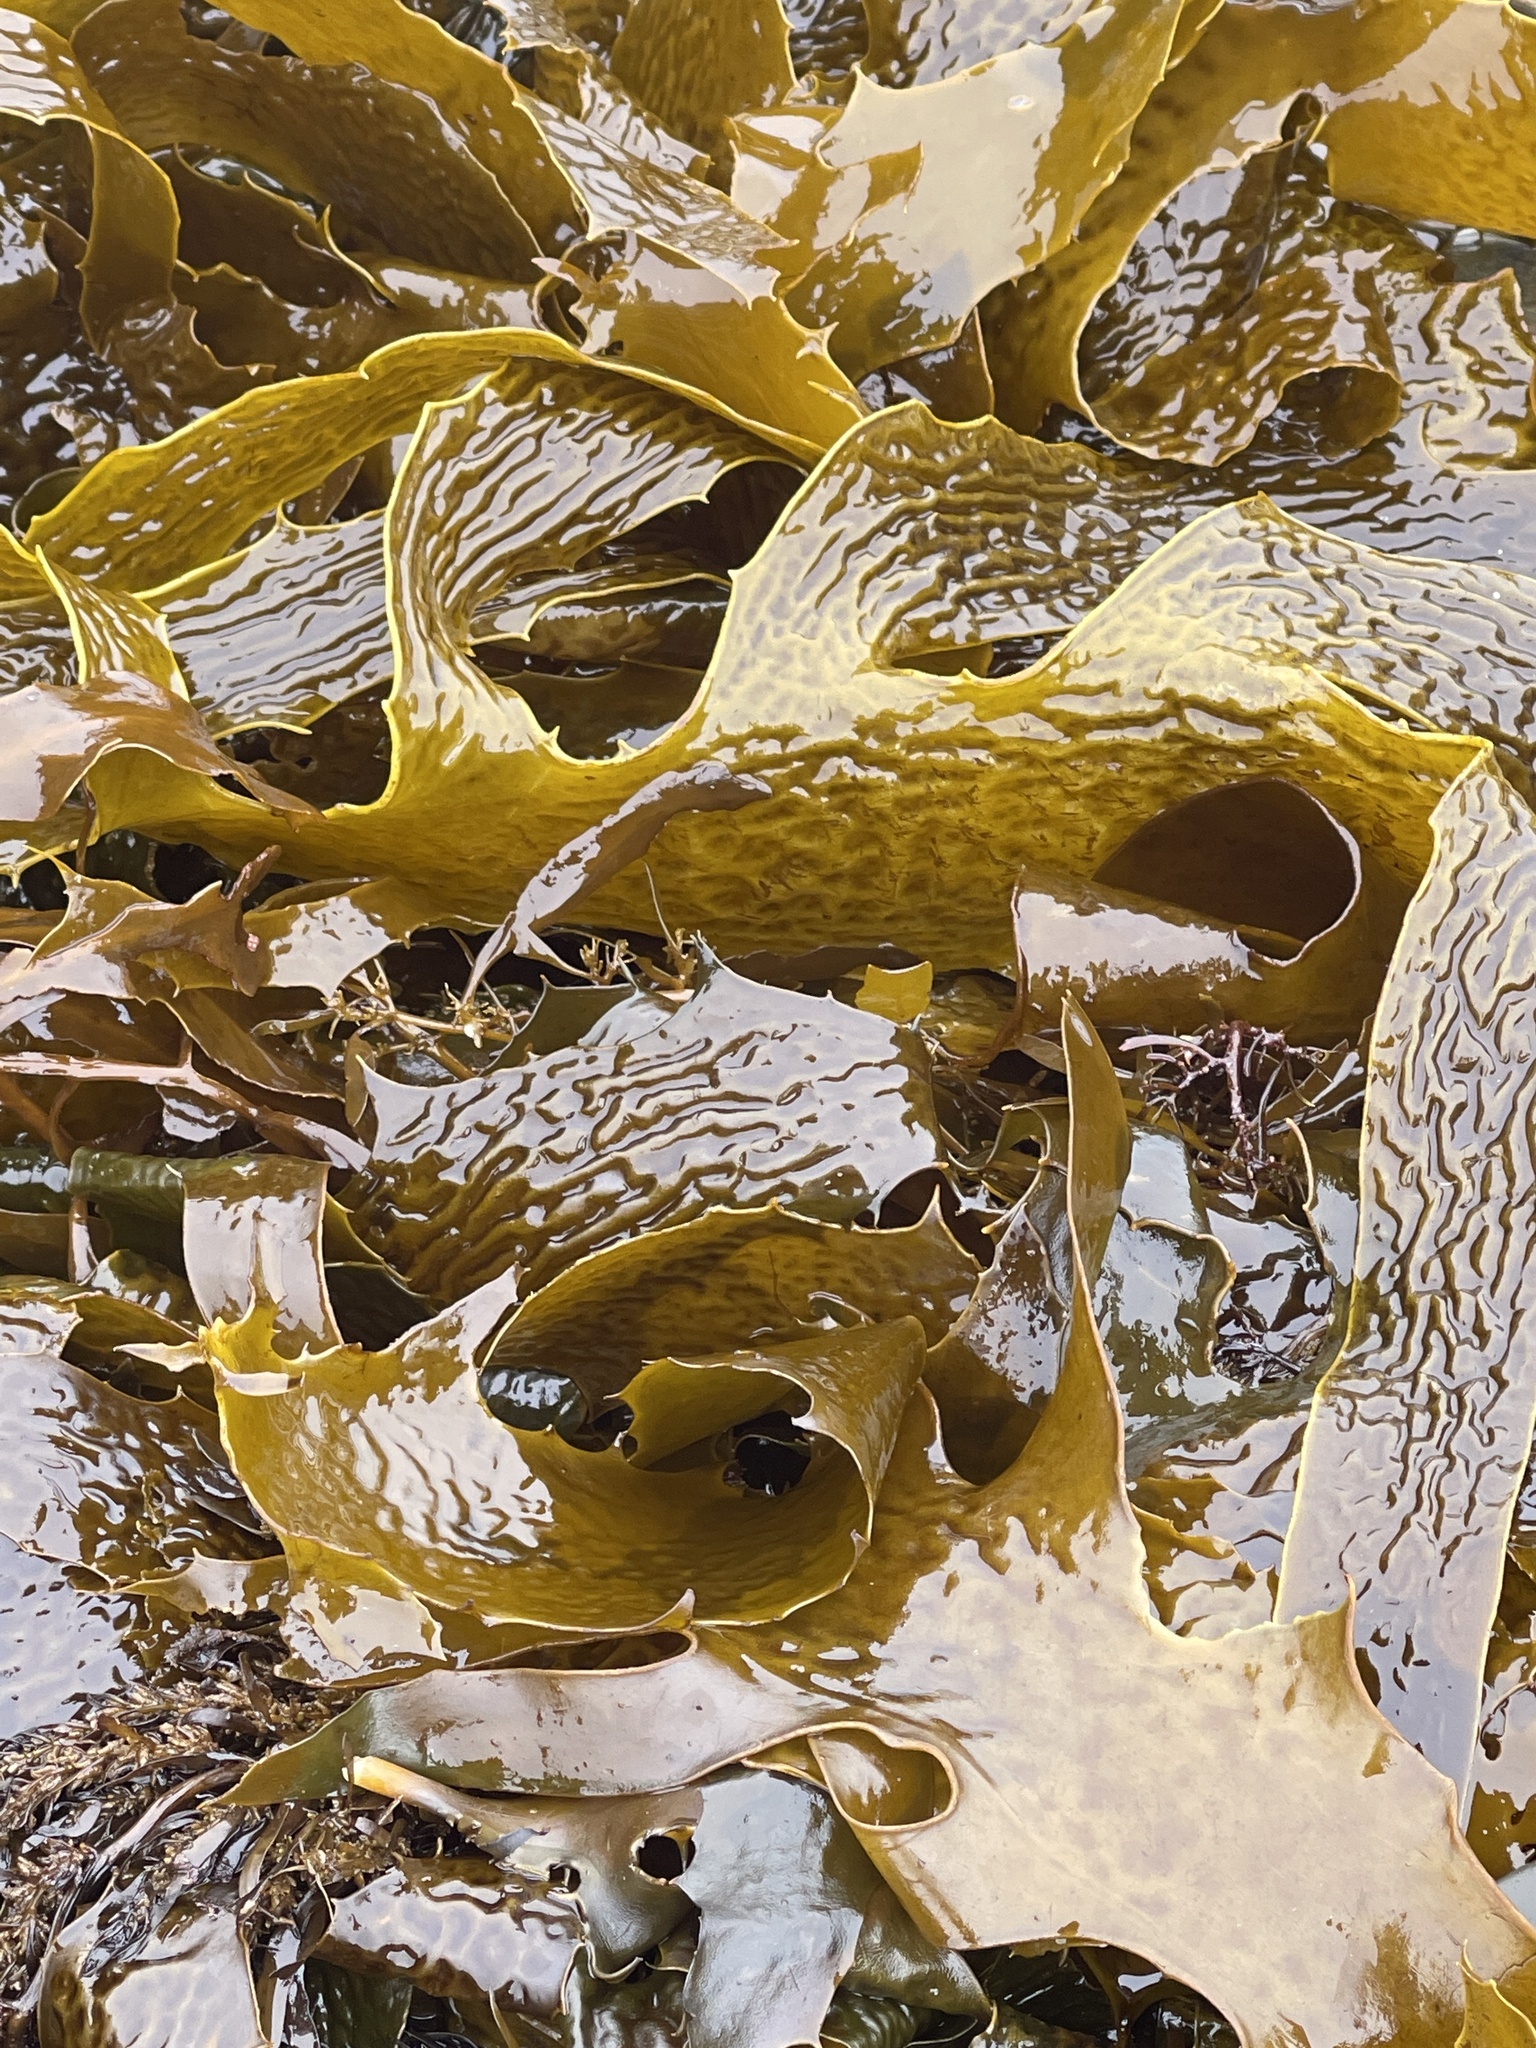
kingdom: Chromista
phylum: Ochrophyta
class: Phaeophyceae
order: Laminariales
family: Lessoniaceae
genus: Ecklonia
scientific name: Ecklonia radiata
